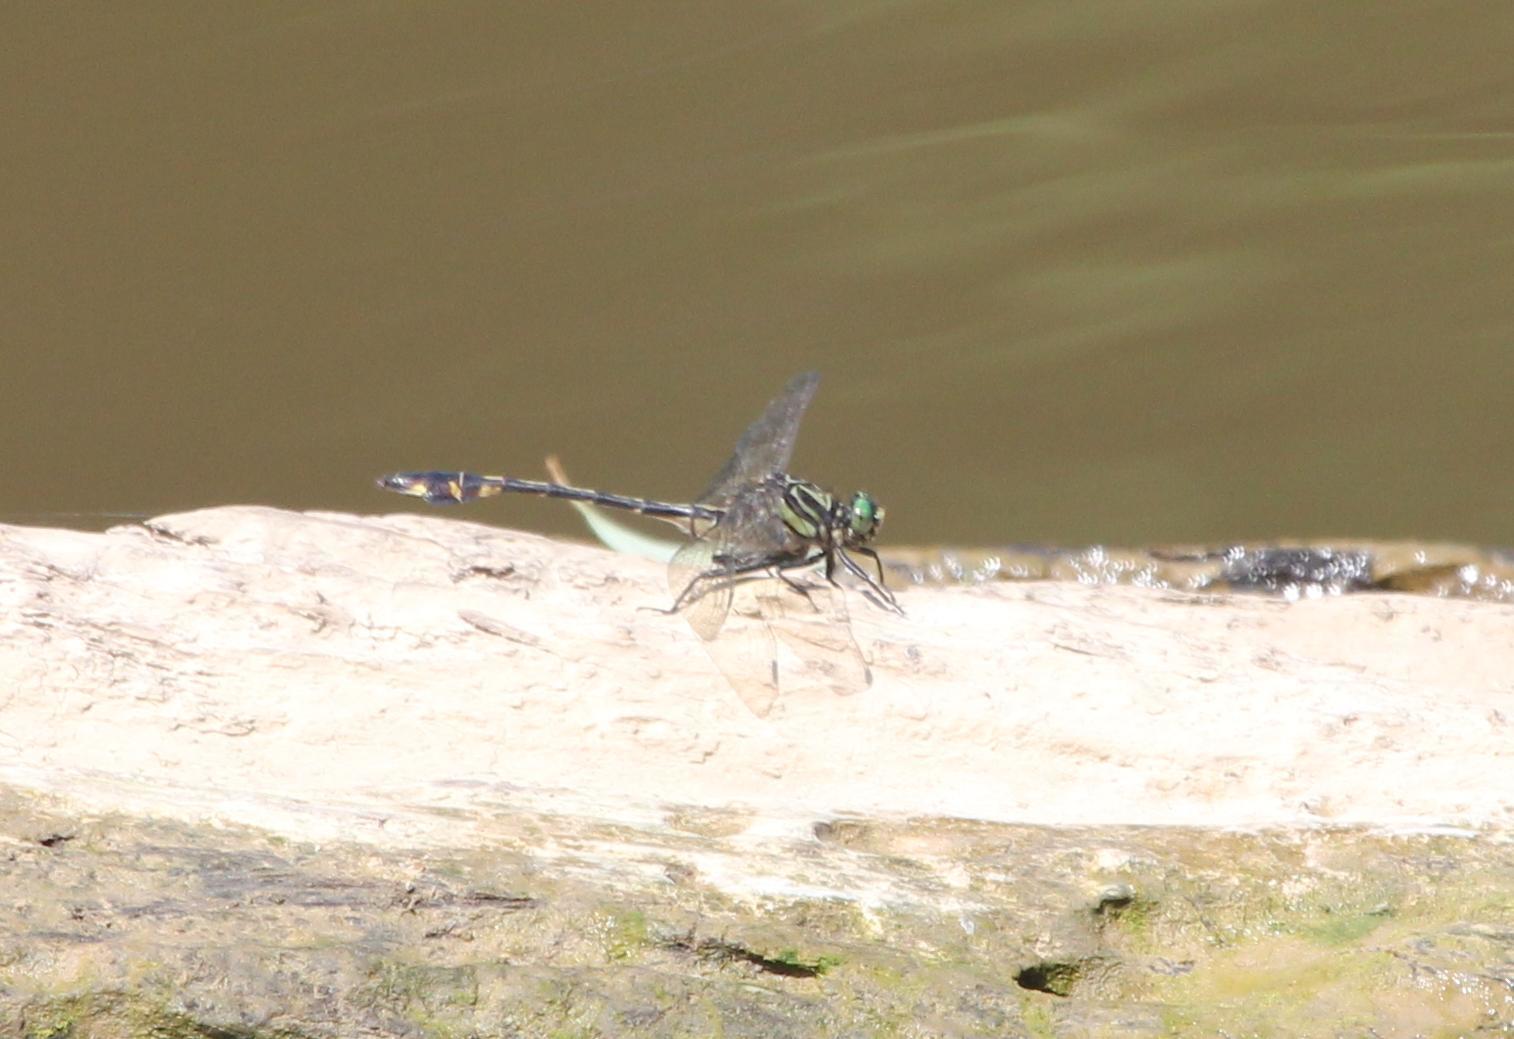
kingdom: Animalia
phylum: Arthropoda
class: Insecta
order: Odonata
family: Gomphidae
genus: Gomphurus
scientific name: Gomphurus modestus
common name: Gulf coast clubtail
